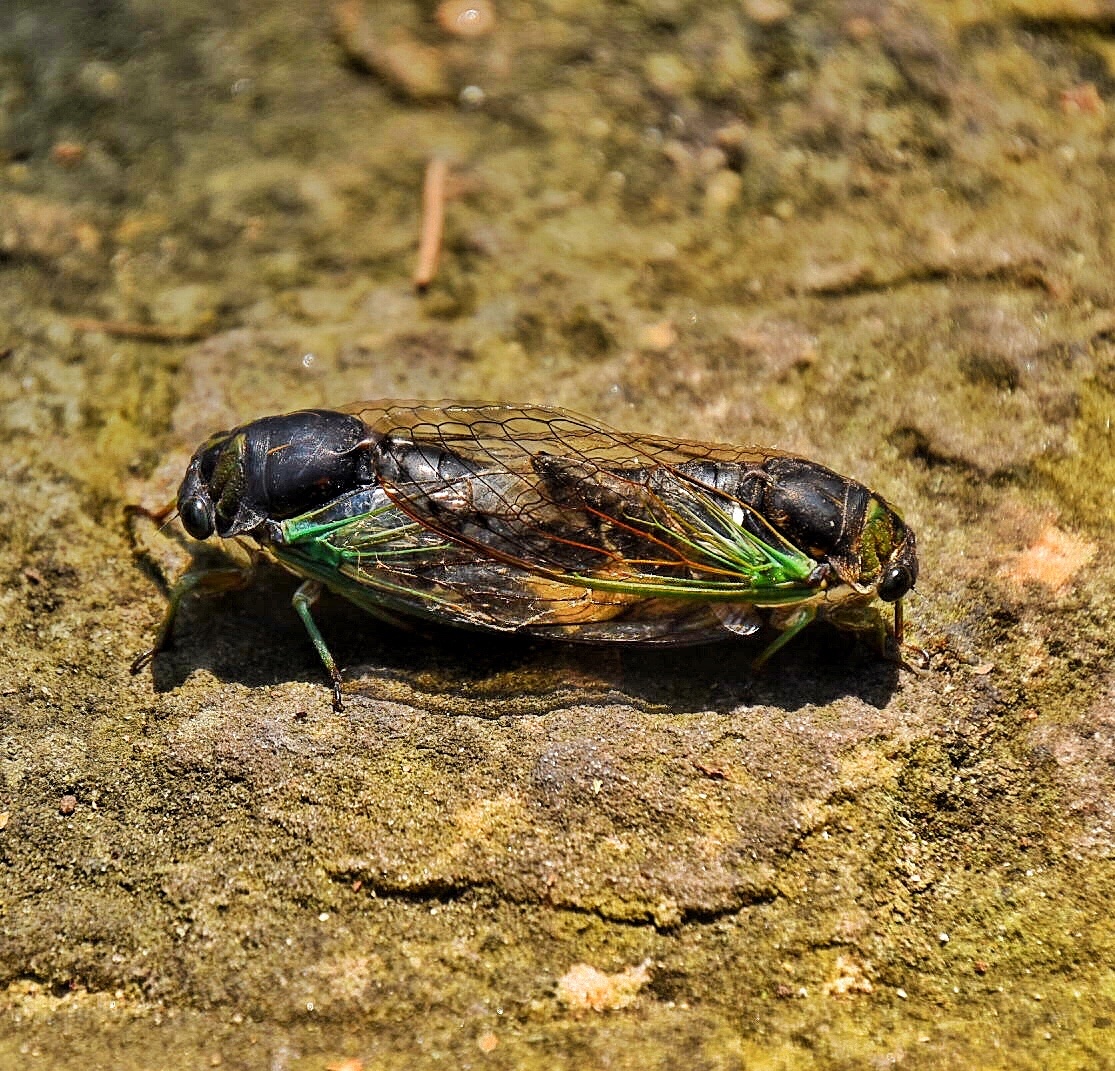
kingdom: Animalia
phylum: Arthropoda
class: Insecta
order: Hemiptera
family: Cicadidae
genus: Neotibicen
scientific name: Neotibicen tibicen
